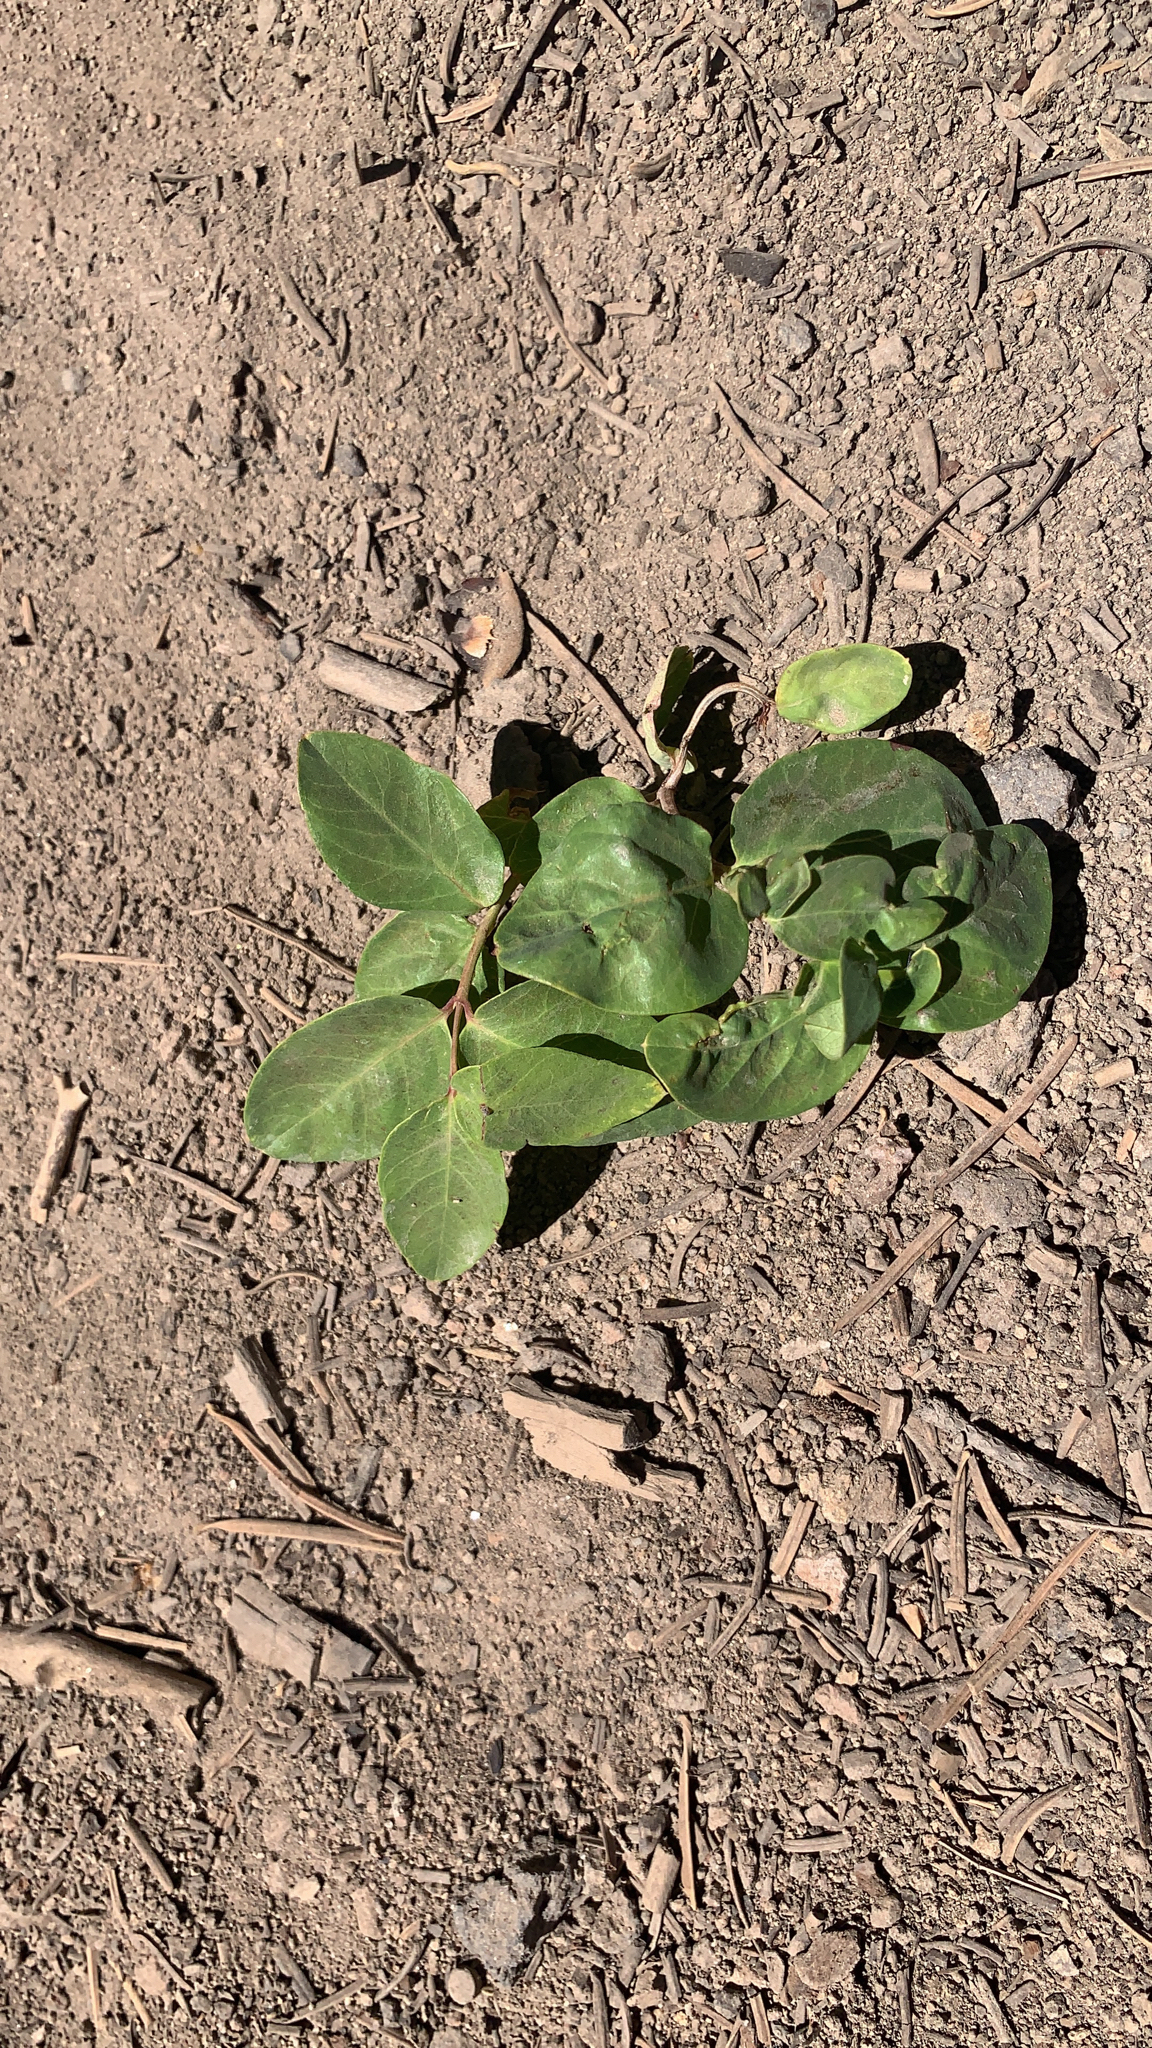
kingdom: Plantae
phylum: Tracheophyta
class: Magnoliopsida
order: Gentianales
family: Apocynaceae
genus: Apocynum
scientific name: Apocynum androsaemifolium
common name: Spreading dogbane
